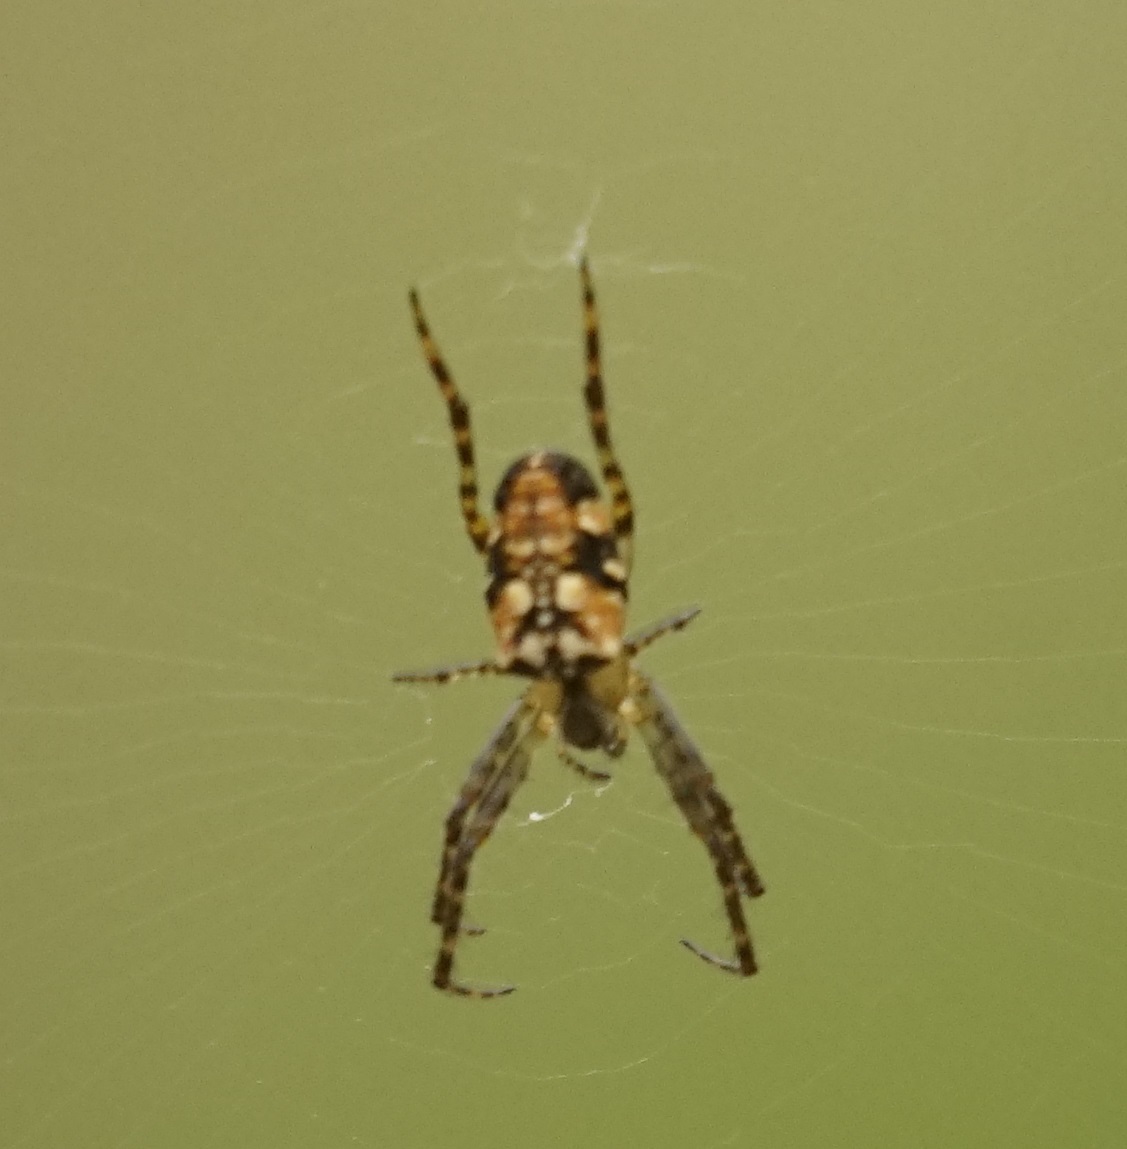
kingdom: Animalia
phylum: Arthropoda
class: Arachnida
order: Araneae
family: Araneidae
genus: Plebs
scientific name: Plebs eburnus
